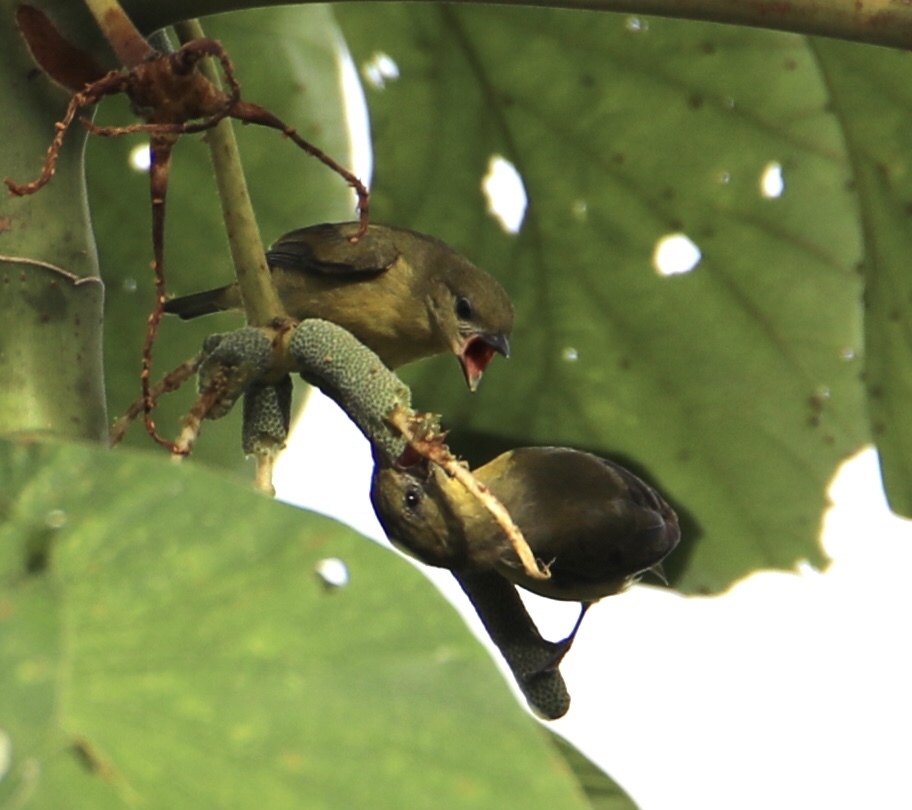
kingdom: Animalia
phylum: Chordata
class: Aves
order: Passeriformes
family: Fringillidae
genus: Euphonia
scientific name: Euphonia laniirostris
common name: Thick-billed euphonia
